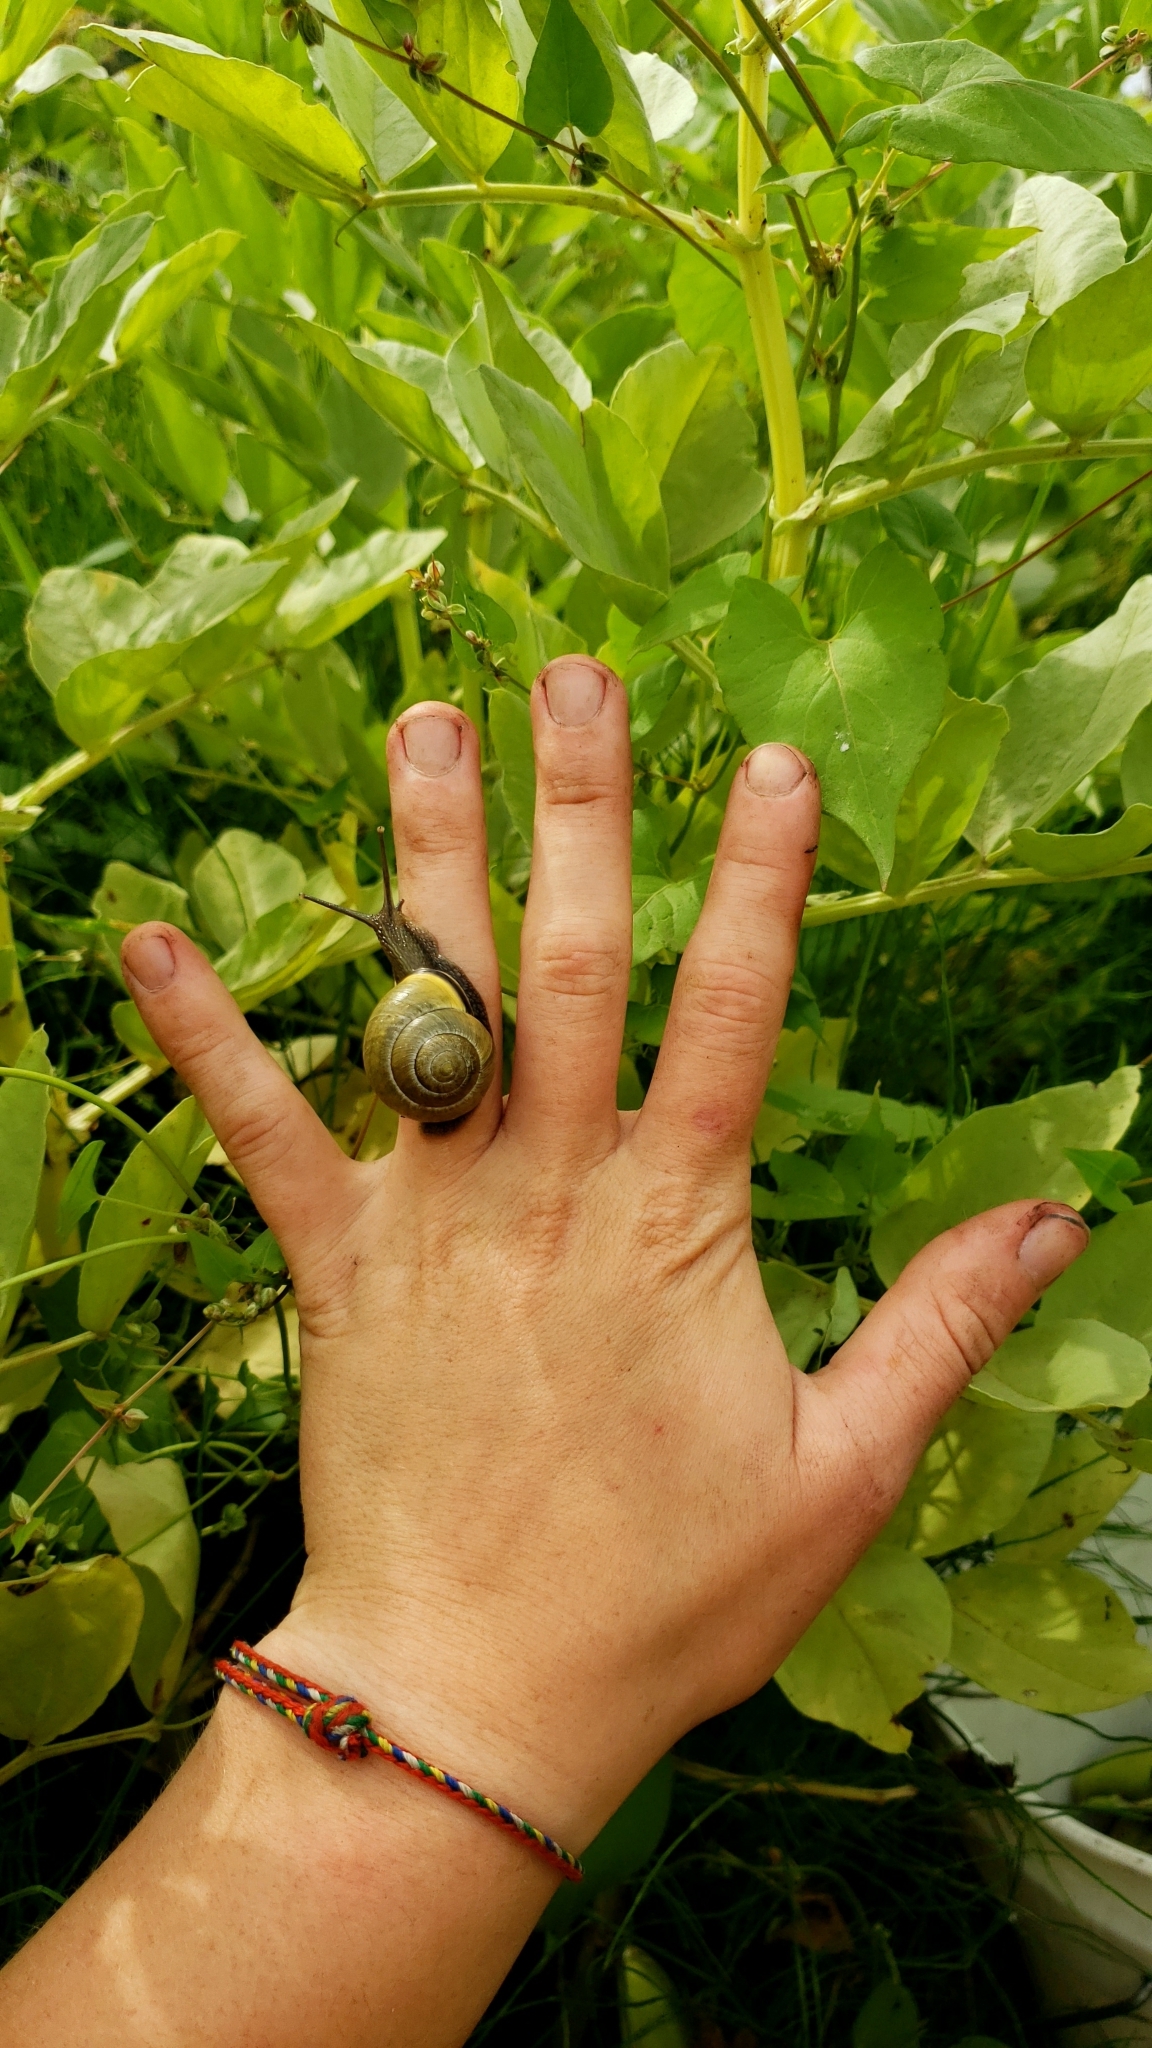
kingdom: Animalia
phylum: Mollusca
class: Gastropoda
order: Stylommatophora
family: Helicidae
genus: Cepaea
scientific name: Cepaea nemoralis
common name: Grovesnail
